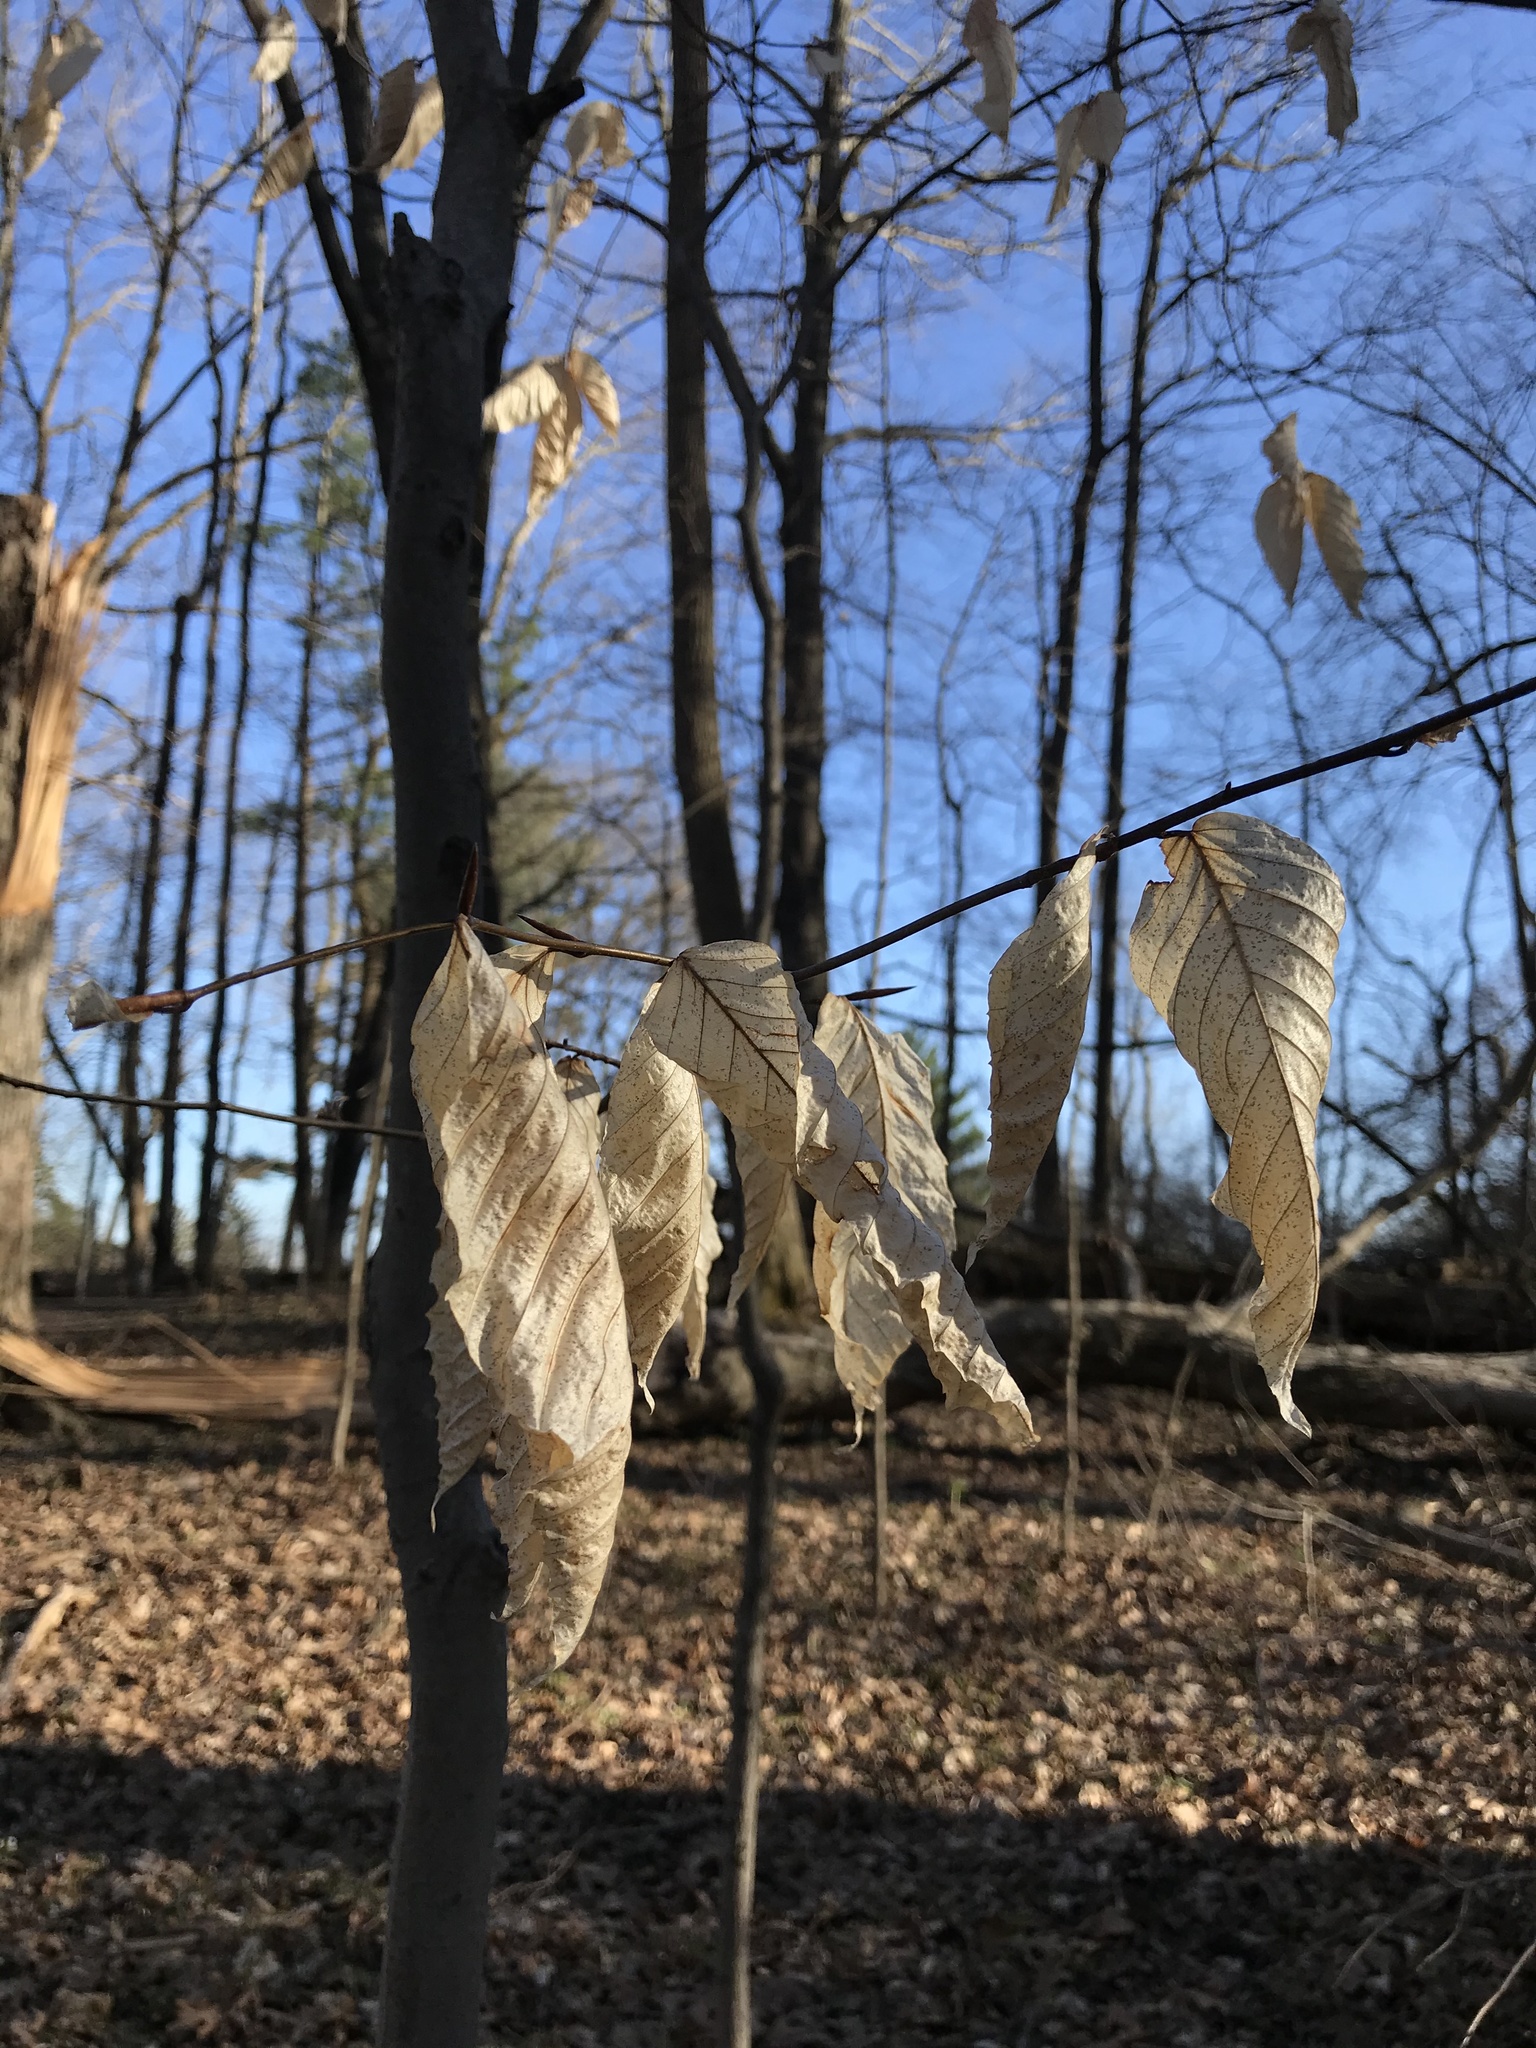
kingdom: Plantae
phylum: Tracheophyta
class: Magnoliopsida
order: Fagales
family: Fagaceae
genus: Fagus
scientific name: Fagus grandifolia
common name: American beech
